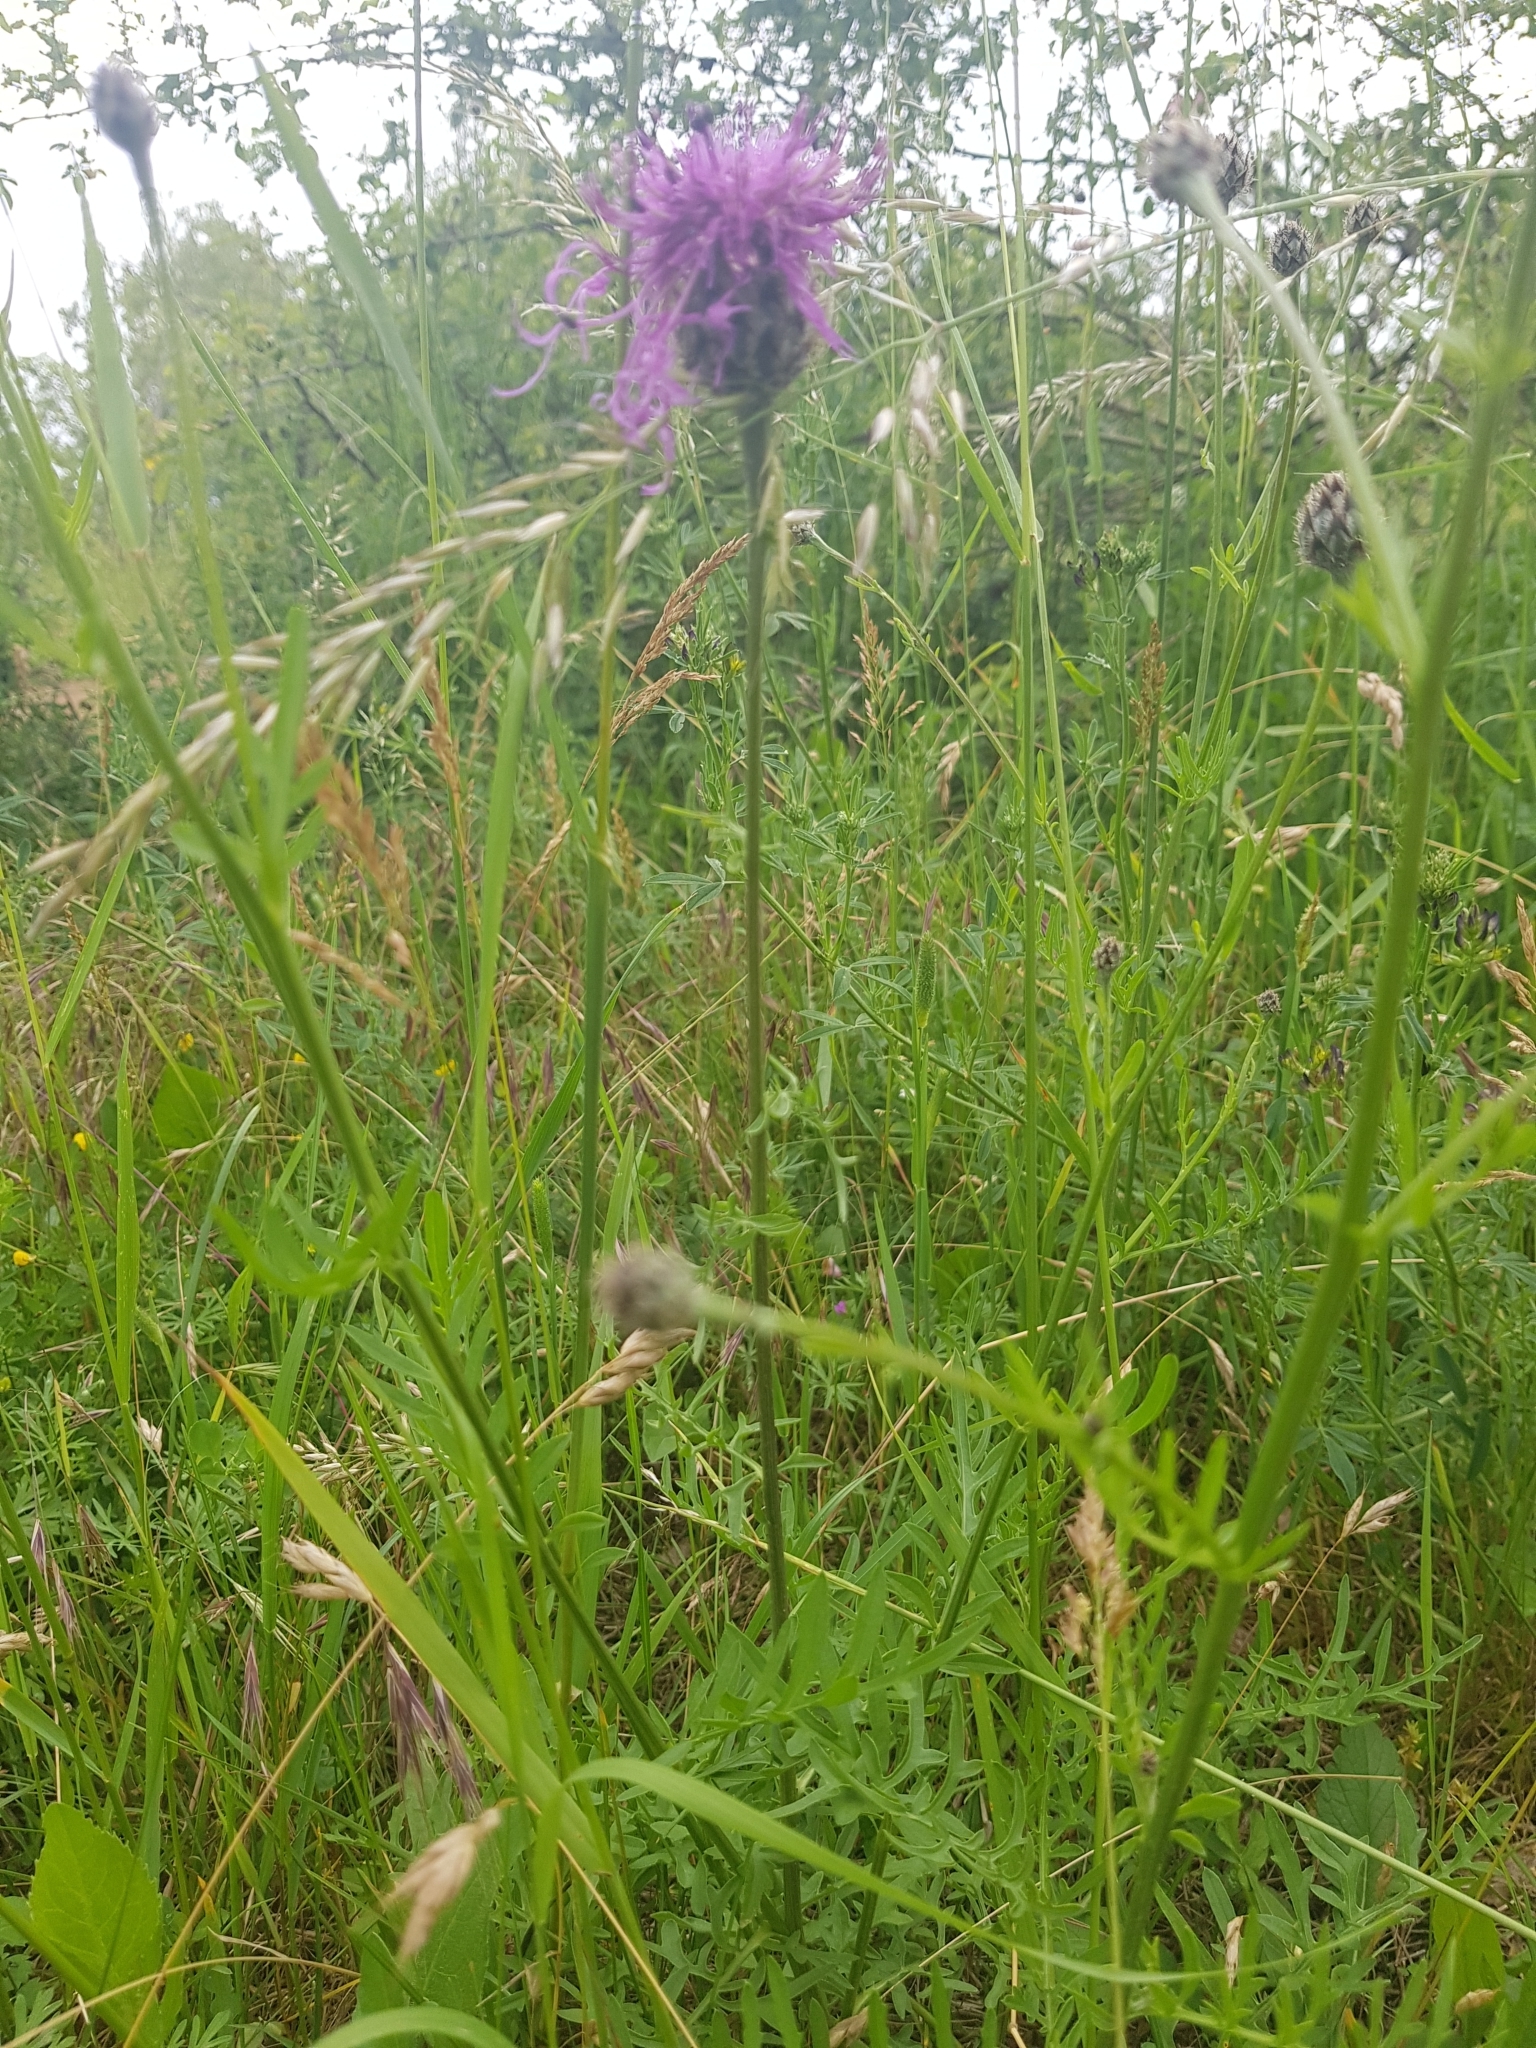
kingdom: Plantae
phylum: Tracheophyta
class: Magnoliopsida
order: Asterales
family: Asteraceae
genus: Centaurea
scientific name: Centaurea scabiosa
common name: Greater knapweed
